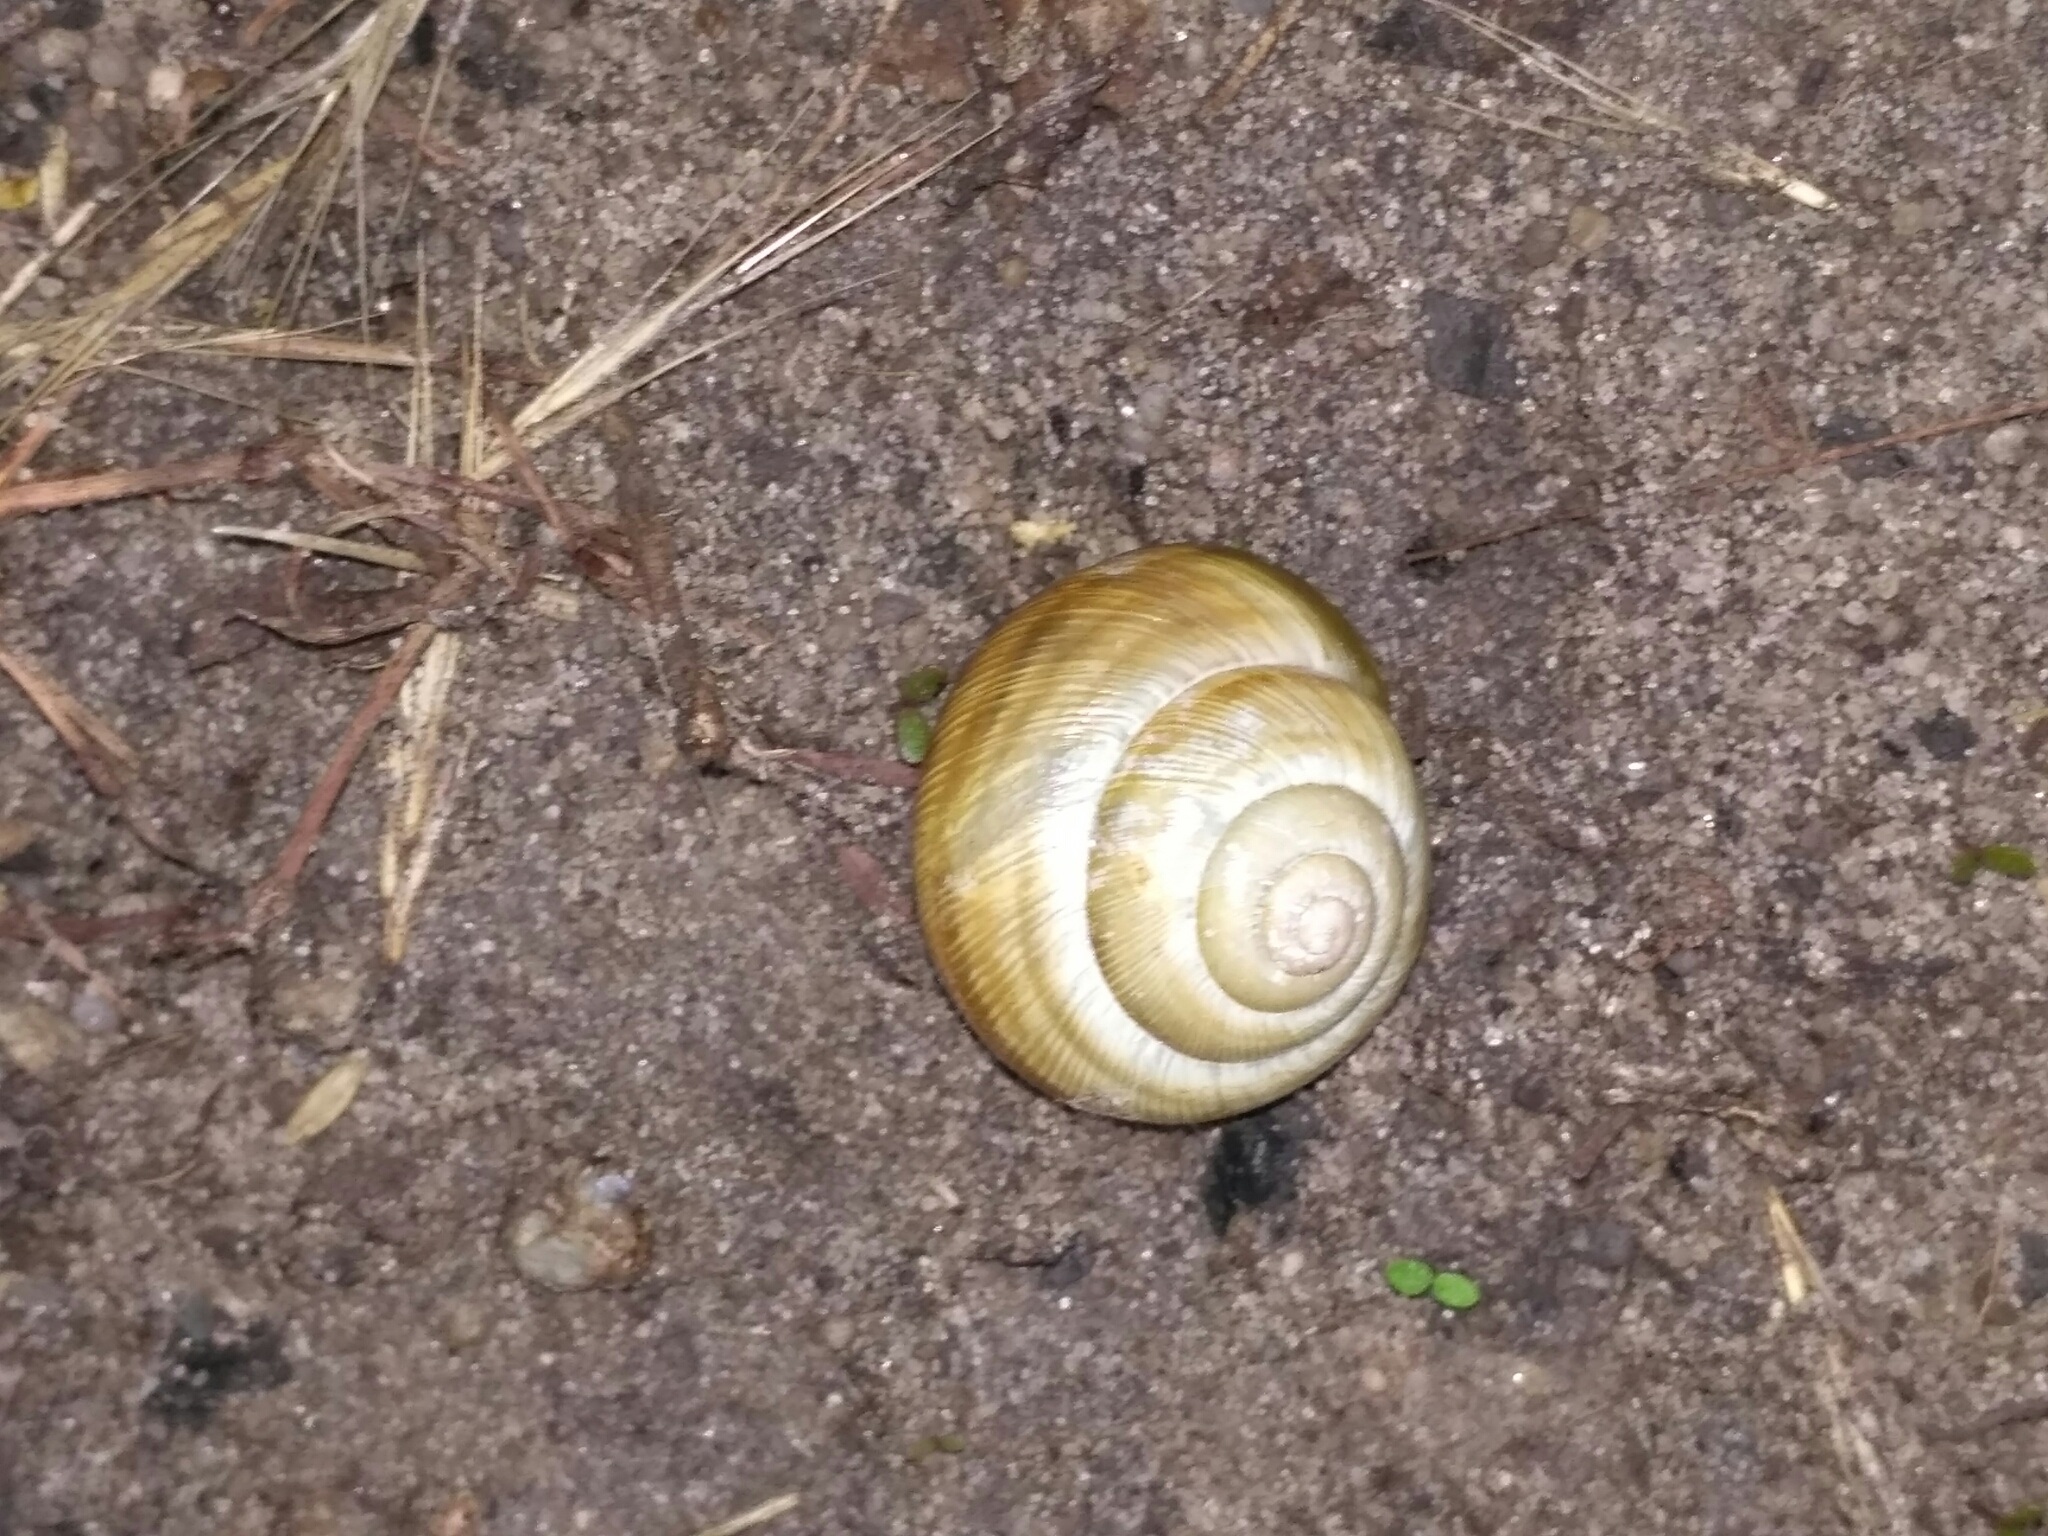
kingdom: Animalia
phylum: Mollusca
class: Gastropoda
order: Stylommatophora
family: Helicidae
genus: Caucasotachea
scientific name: Caucasotachea vindobonensis
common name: European helicid land snail
